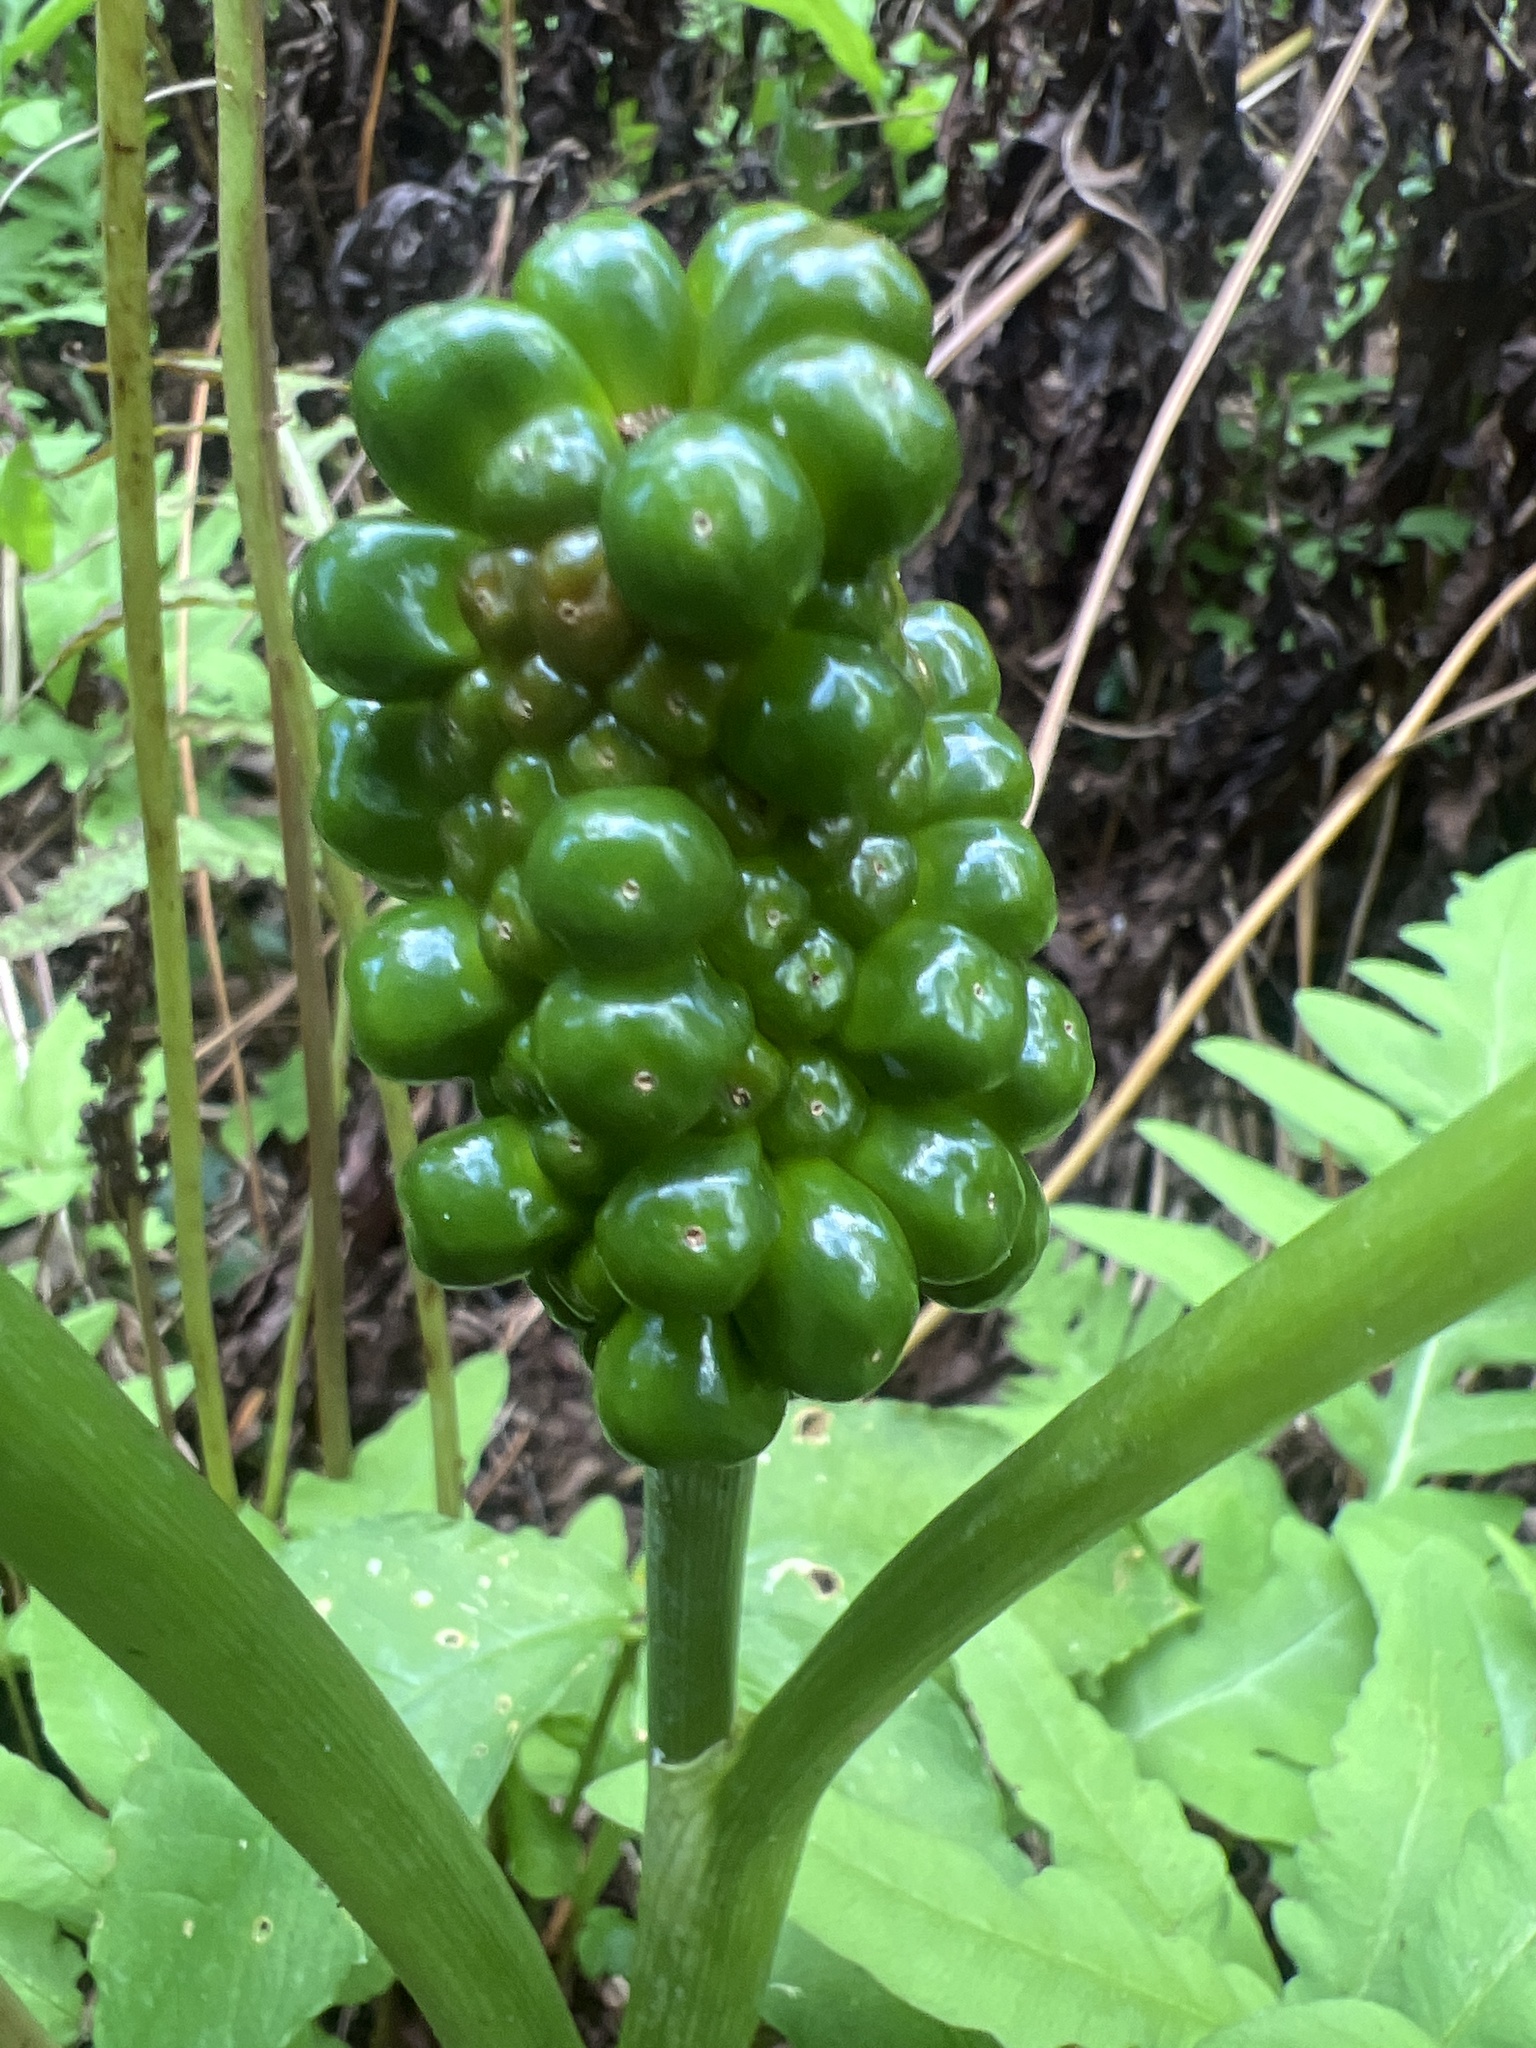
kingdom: Plantae
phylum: Tracheophyta
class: Liliopsida
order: Alismatales
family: Araceae
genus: Arisaema
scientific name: Arisaema triphyllum
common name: Jack-in-the-pulpit
